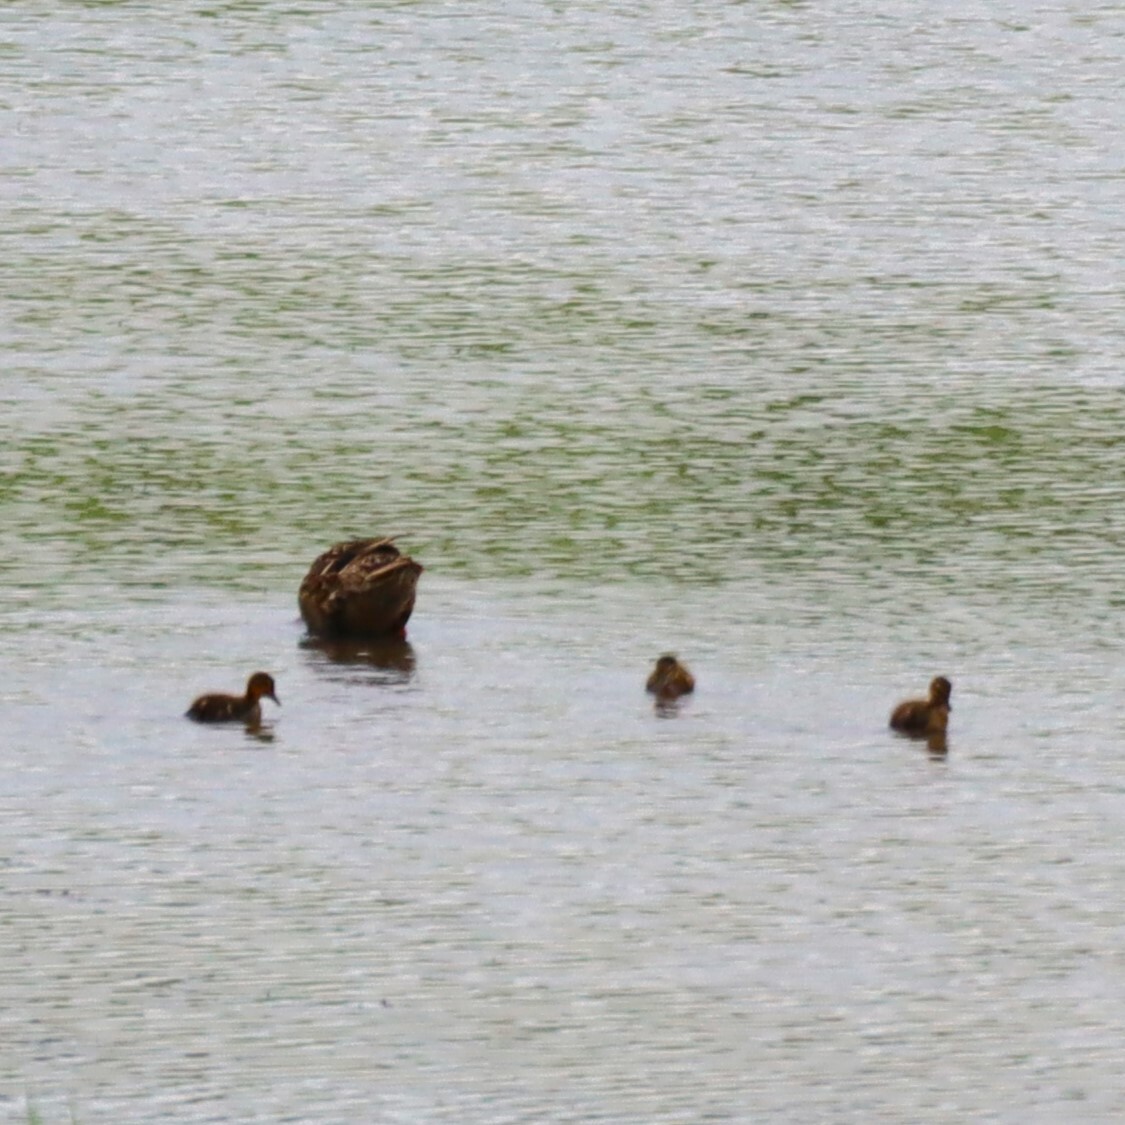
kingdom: Animalia
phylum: Chordata
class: Aves
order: Anseriformes
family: Anatidae
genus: Anas
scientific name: Anas platyrhynchos
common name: Mallard
